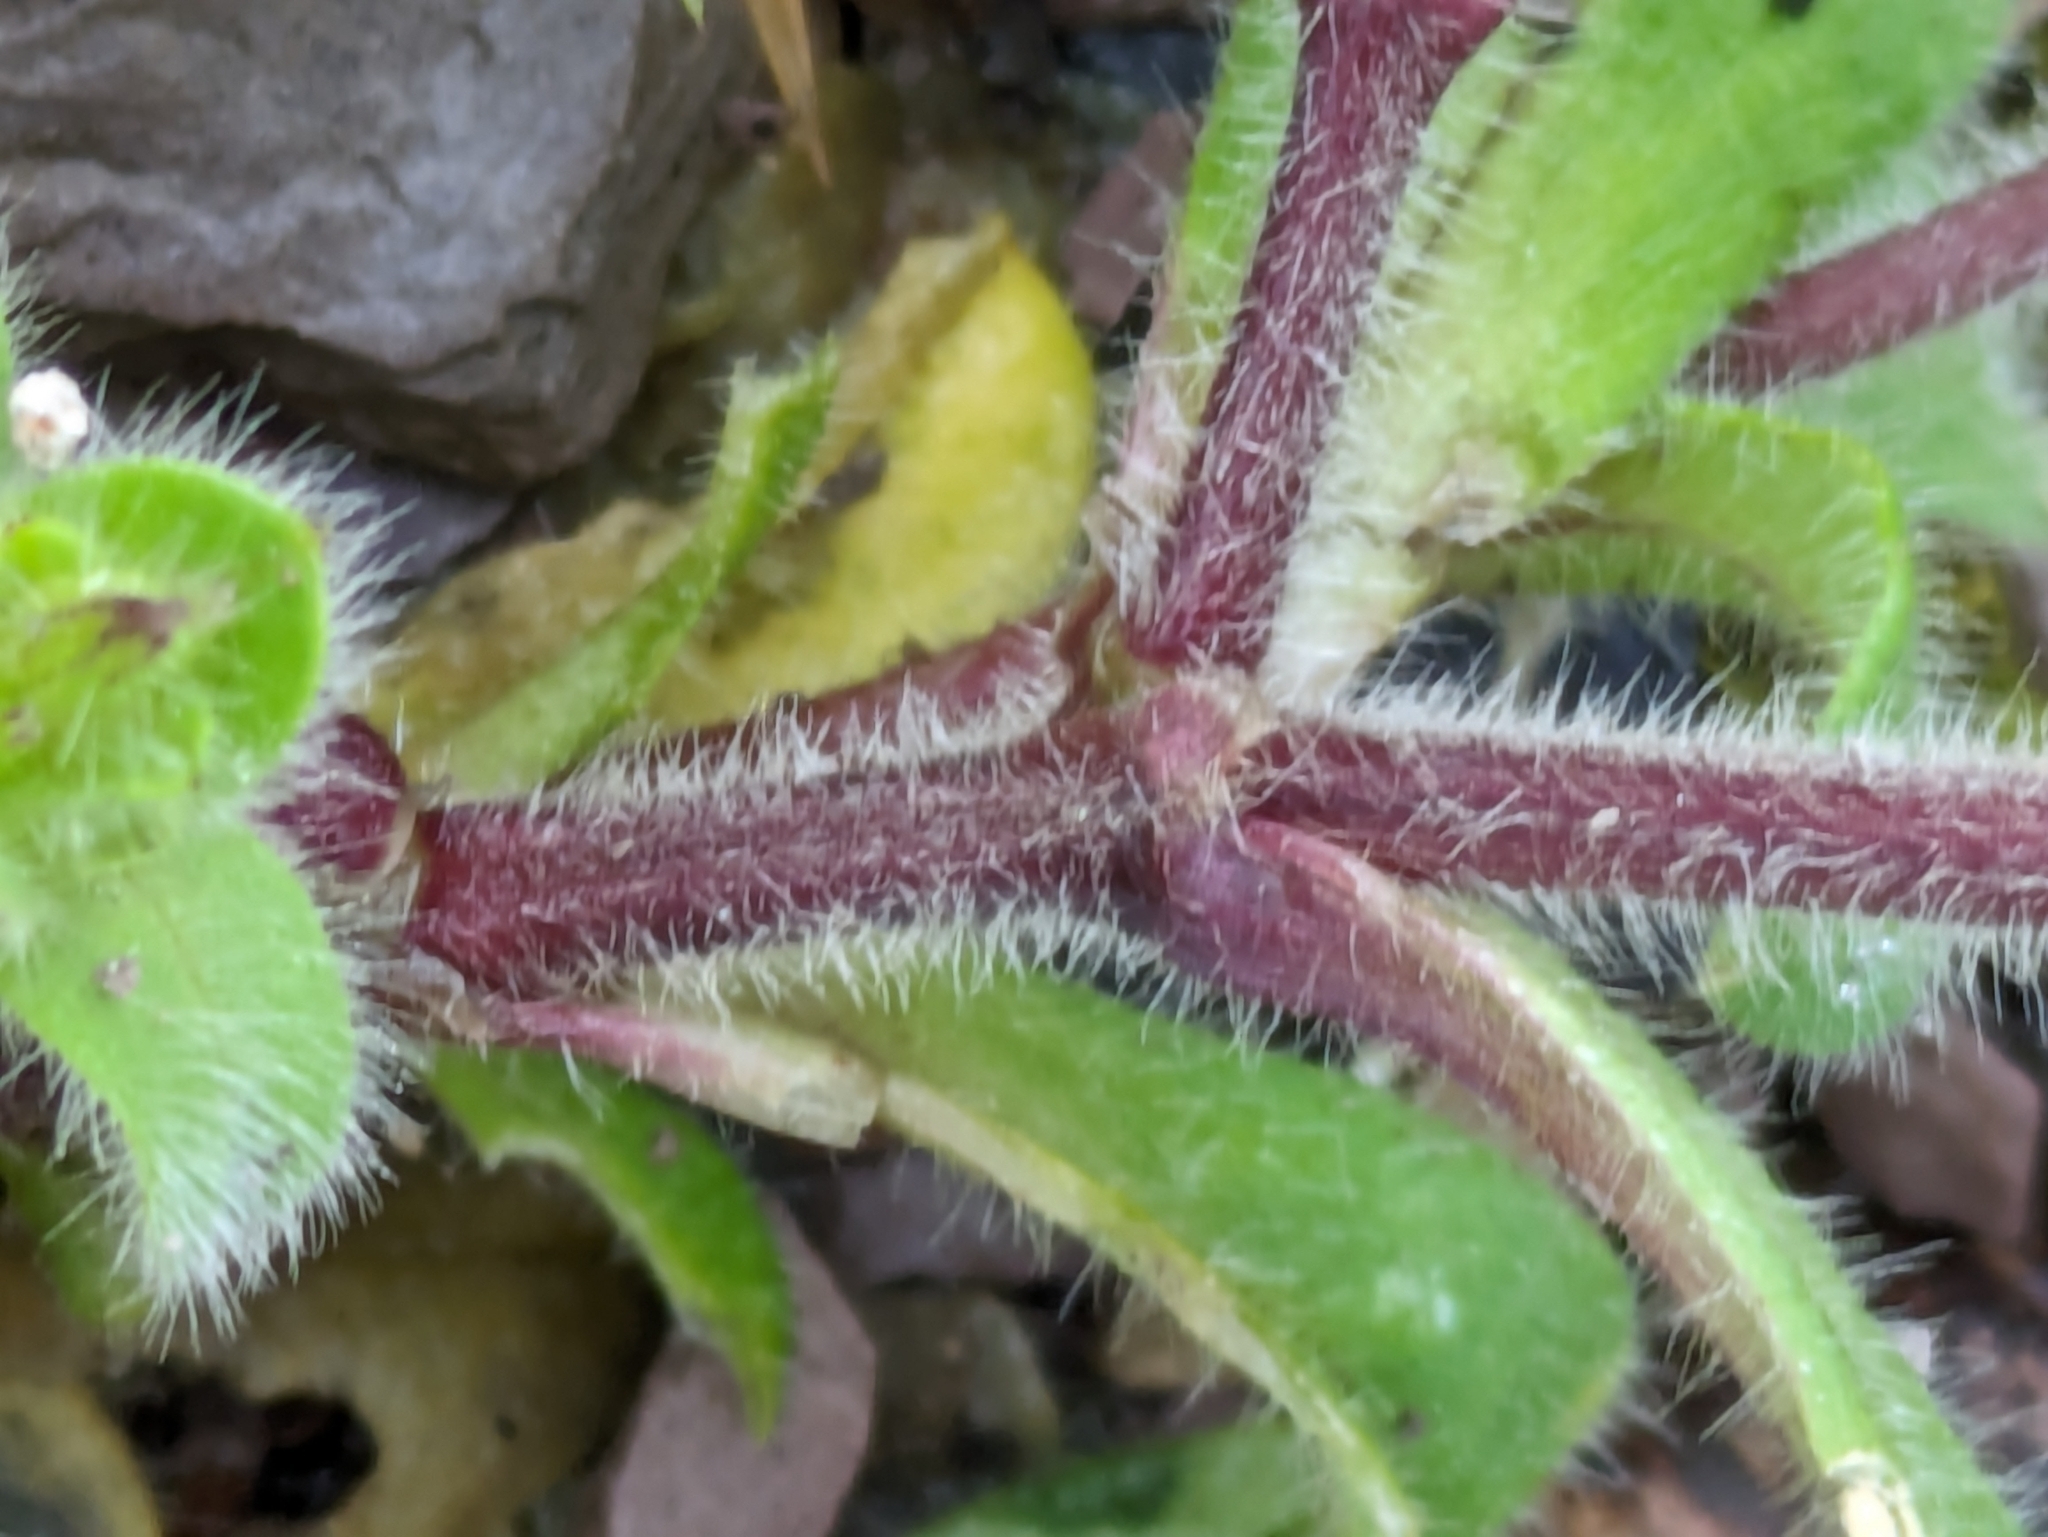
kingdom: Plantae
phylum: Tracheophyta
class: Magnoliopsida
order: Caryophyllales
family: Caryophyllaceae
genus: Cerastium
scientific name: Cerastium glomeratum
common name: Sticky chickweed
